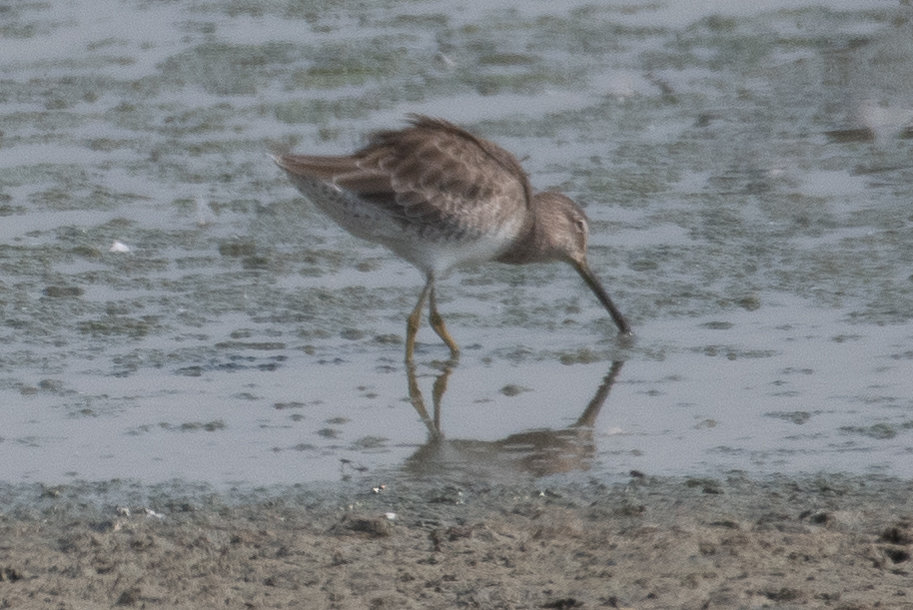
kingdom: Animalia
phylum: Chordata
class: Aves
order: Charadriiformes
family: Scolopacidae
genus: Limnodromus
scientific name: Limnodromus scolopaceus
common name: Long-billed dowitcher
